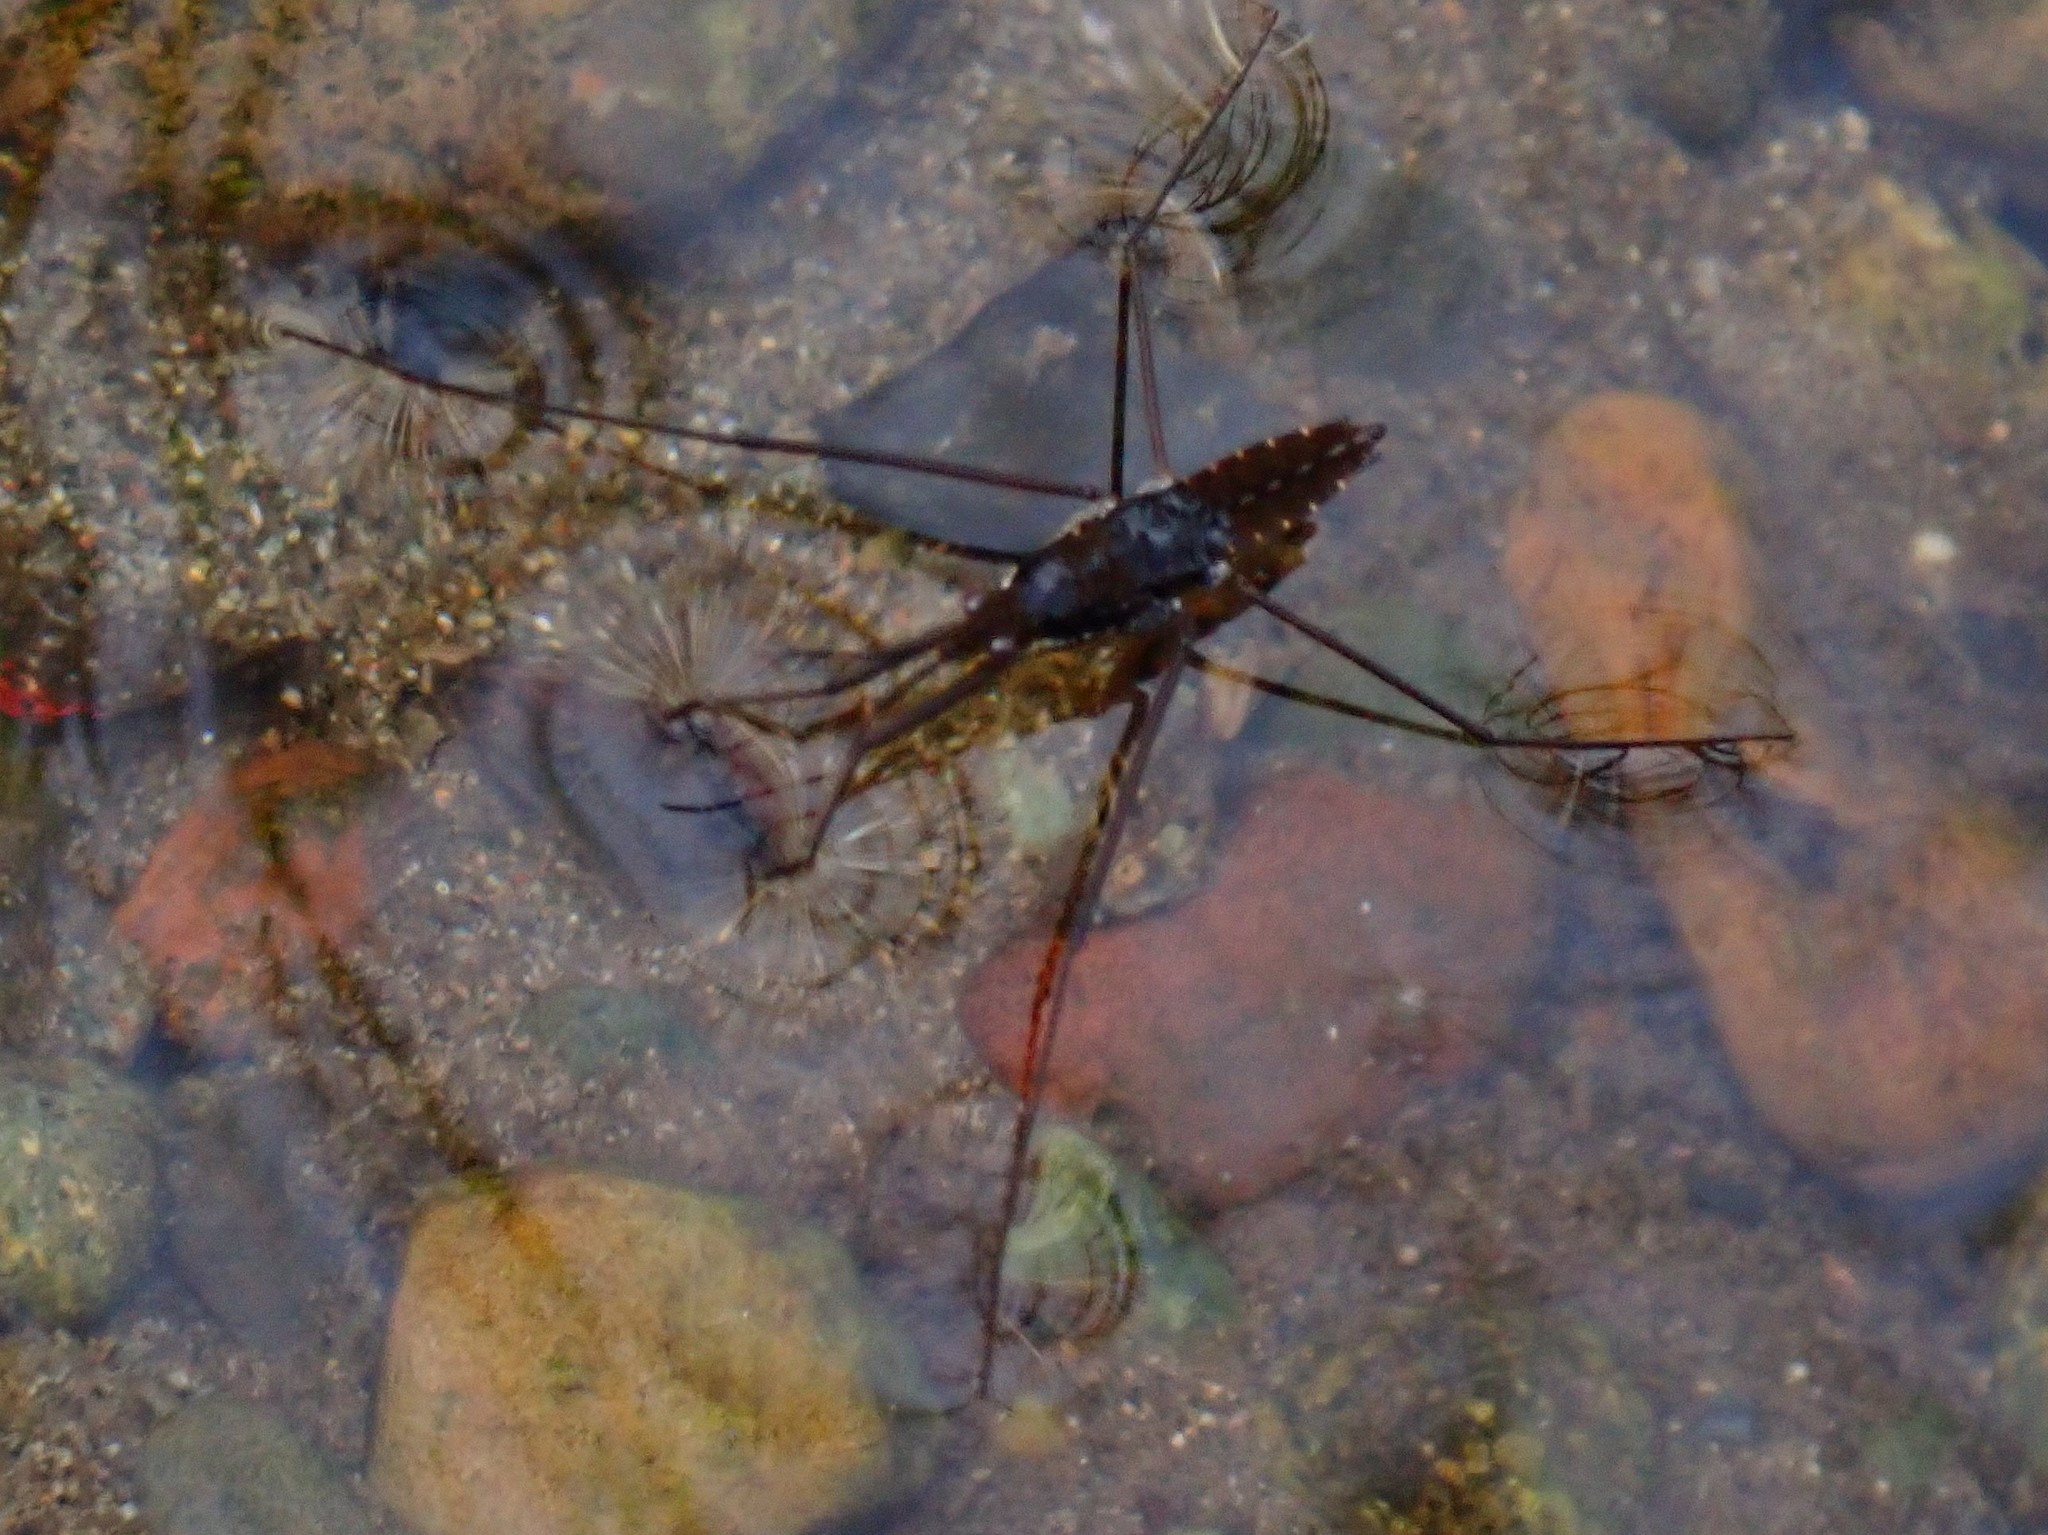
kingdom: Animalia
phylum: Arthropoda
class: Insecta
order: Hemiptera
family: Gerridae
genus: Aquarius
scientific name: Aquarius remigis
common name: Common water strider
